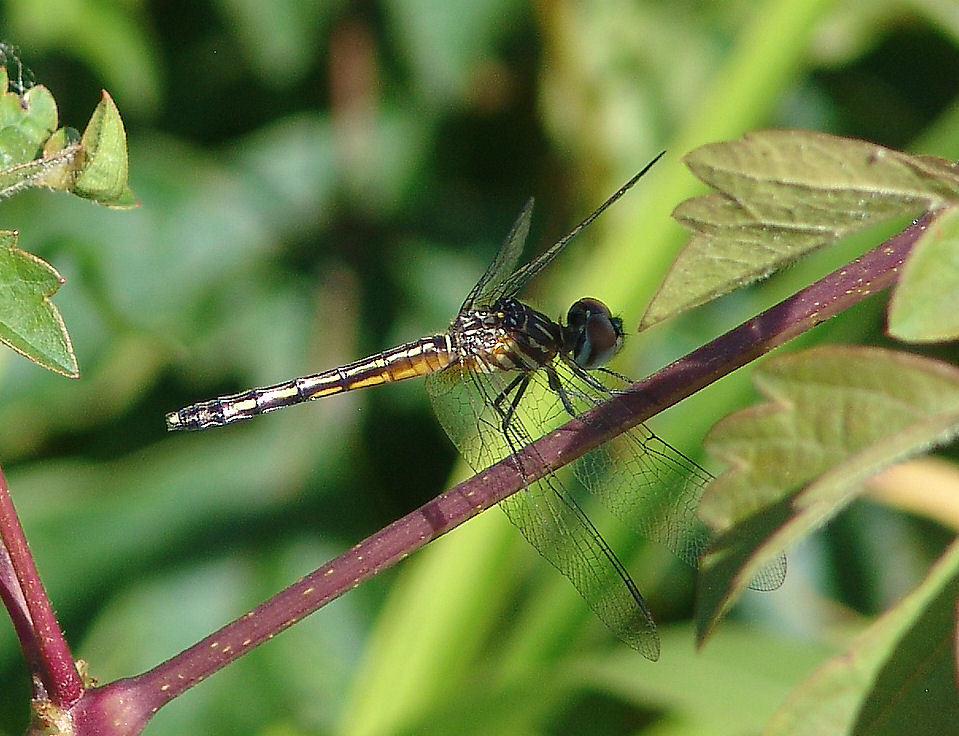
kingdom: Animalia
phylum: Arthropoda
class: Insecta
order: Odonata
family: Libellulidae
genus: Pachydiplax
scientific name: Pachydiplax longipennis
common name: Blue dasher
